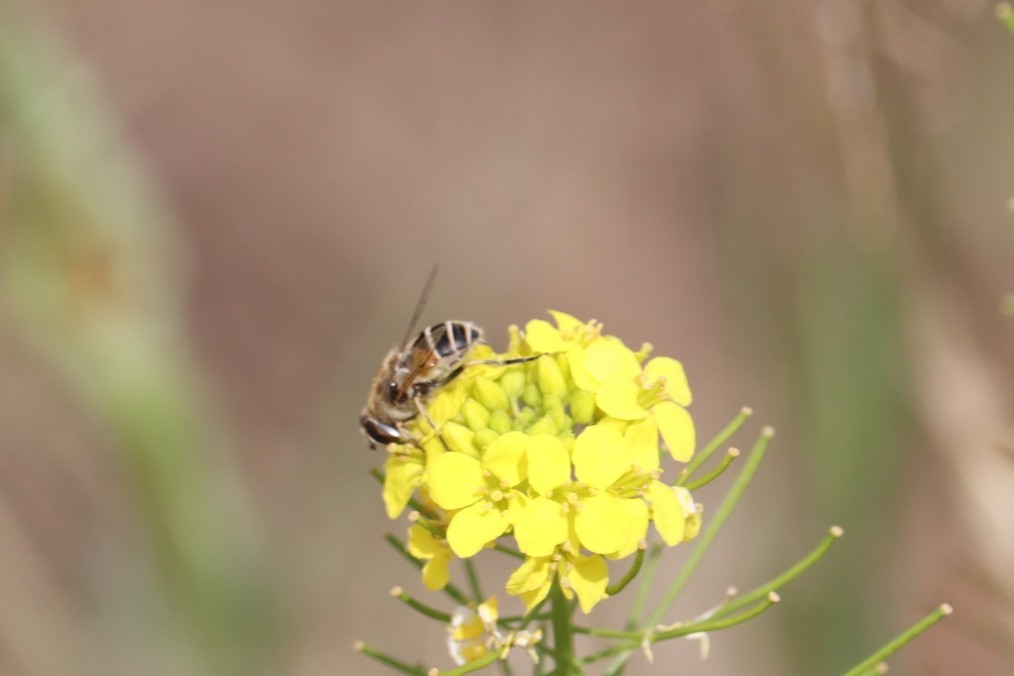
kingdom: Animalia
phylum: Arthropoda
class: Insecta
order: Diptera
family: Syrphidae
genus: Eristalis
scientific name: Eristalis arbustorum
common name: Hover fly
